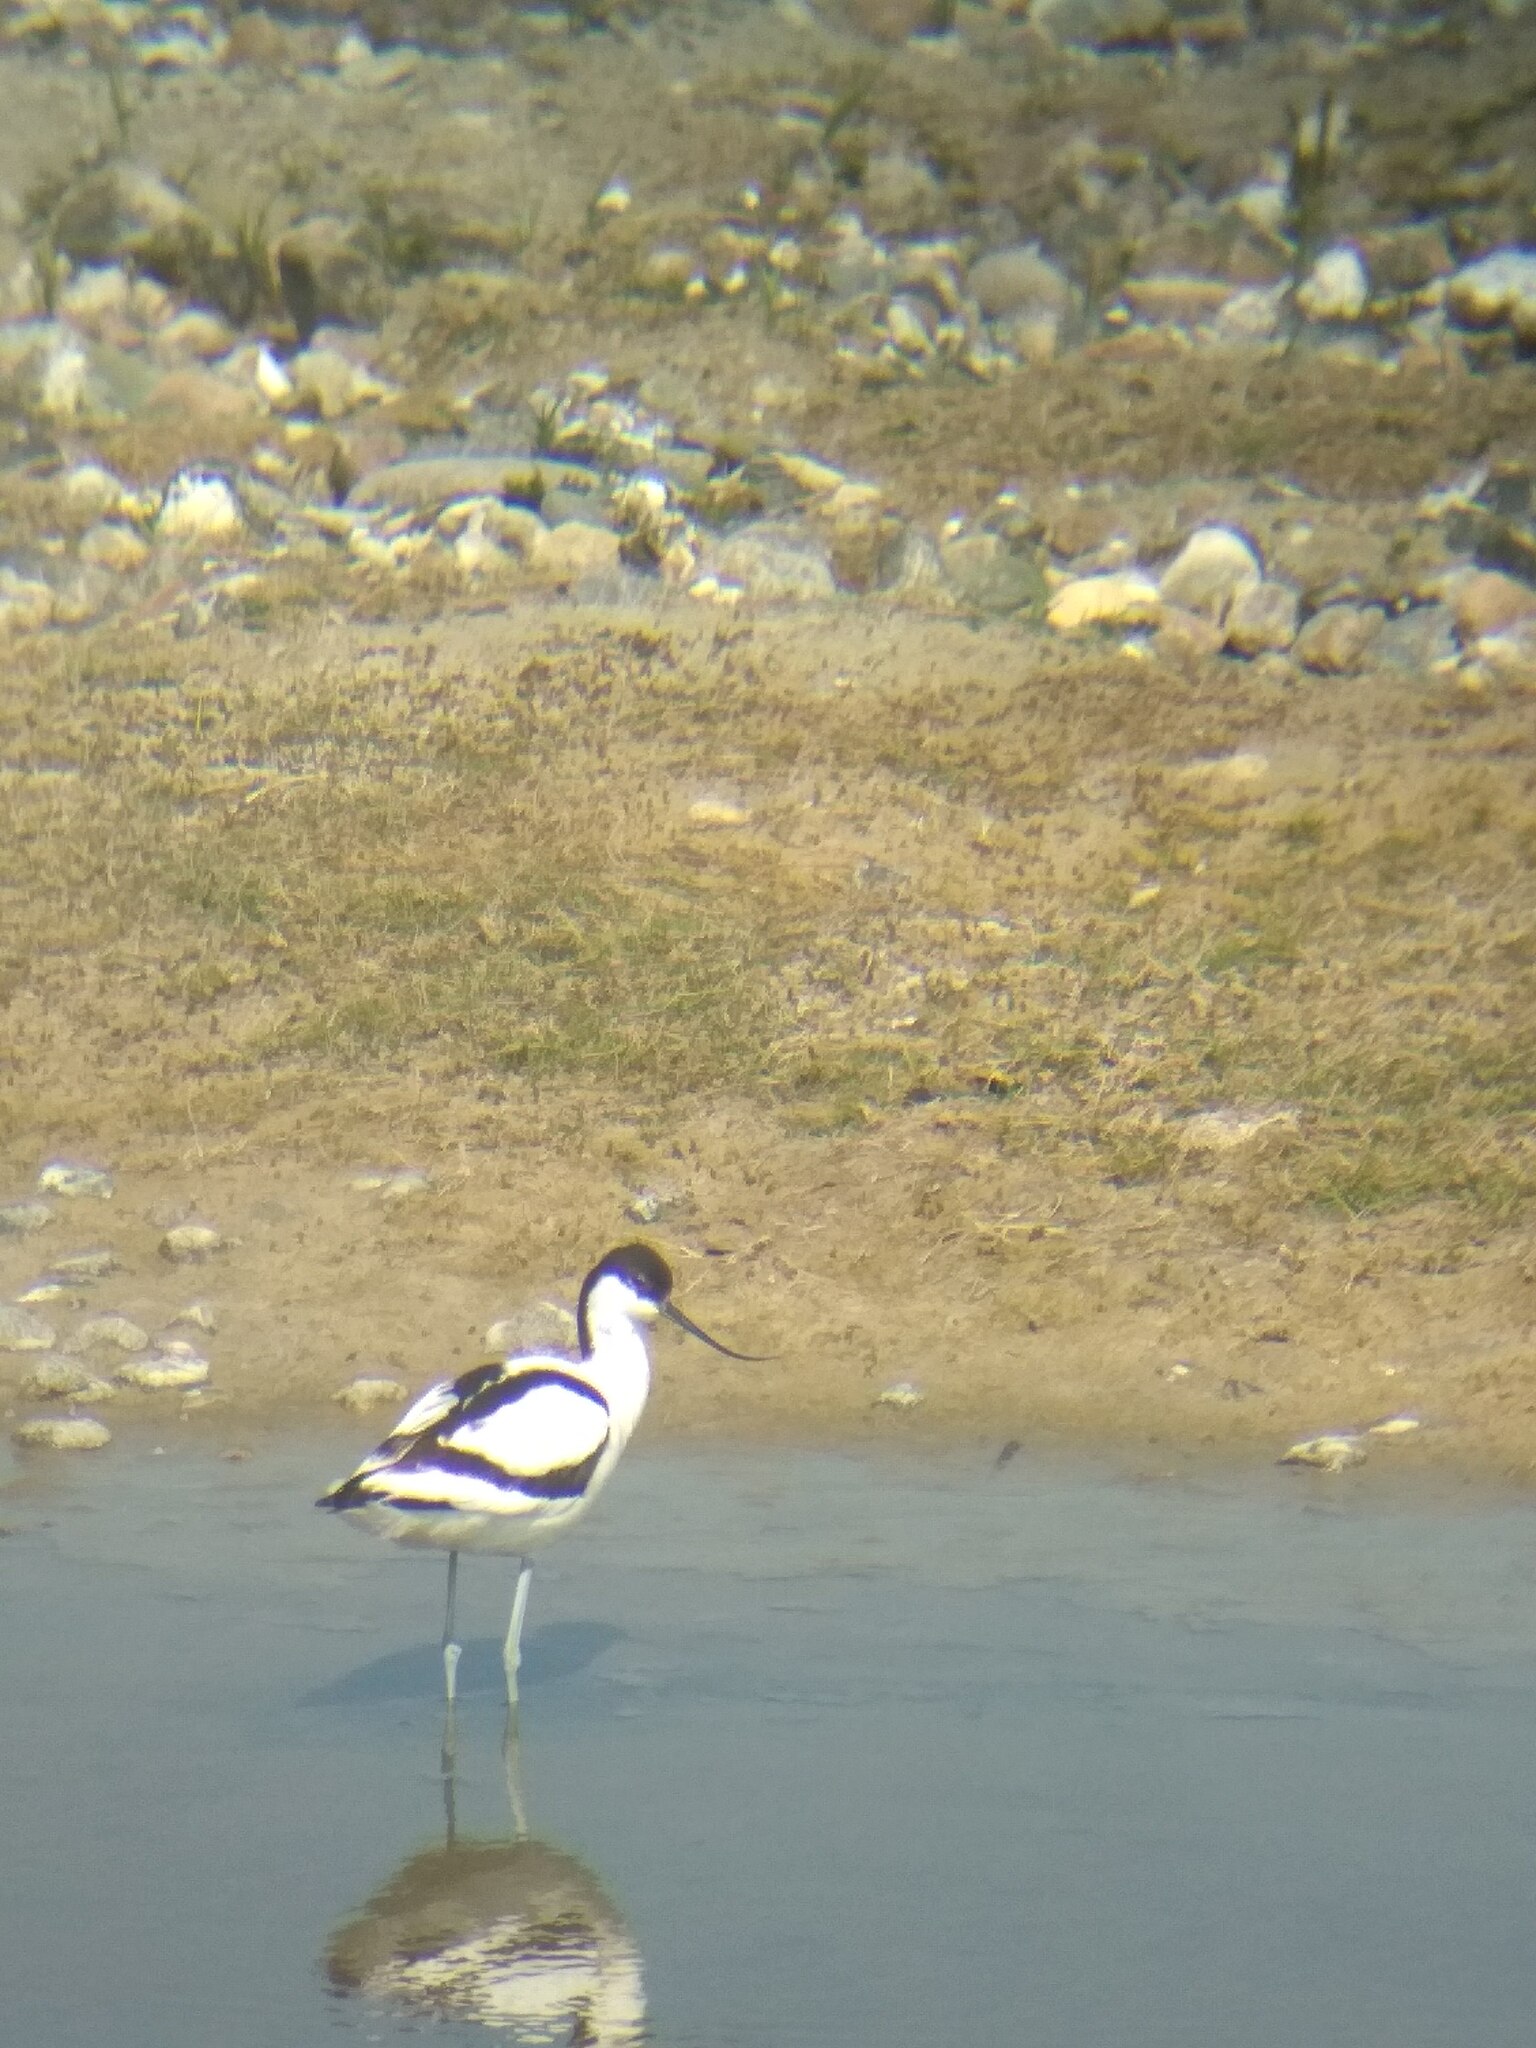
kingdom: Animalia
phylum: Chordata
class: Aves
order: Charadriiformes
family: Recurvirostridae
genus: Recurvirostra
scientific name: Recurvirostra avosetta
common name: Pied avocet
